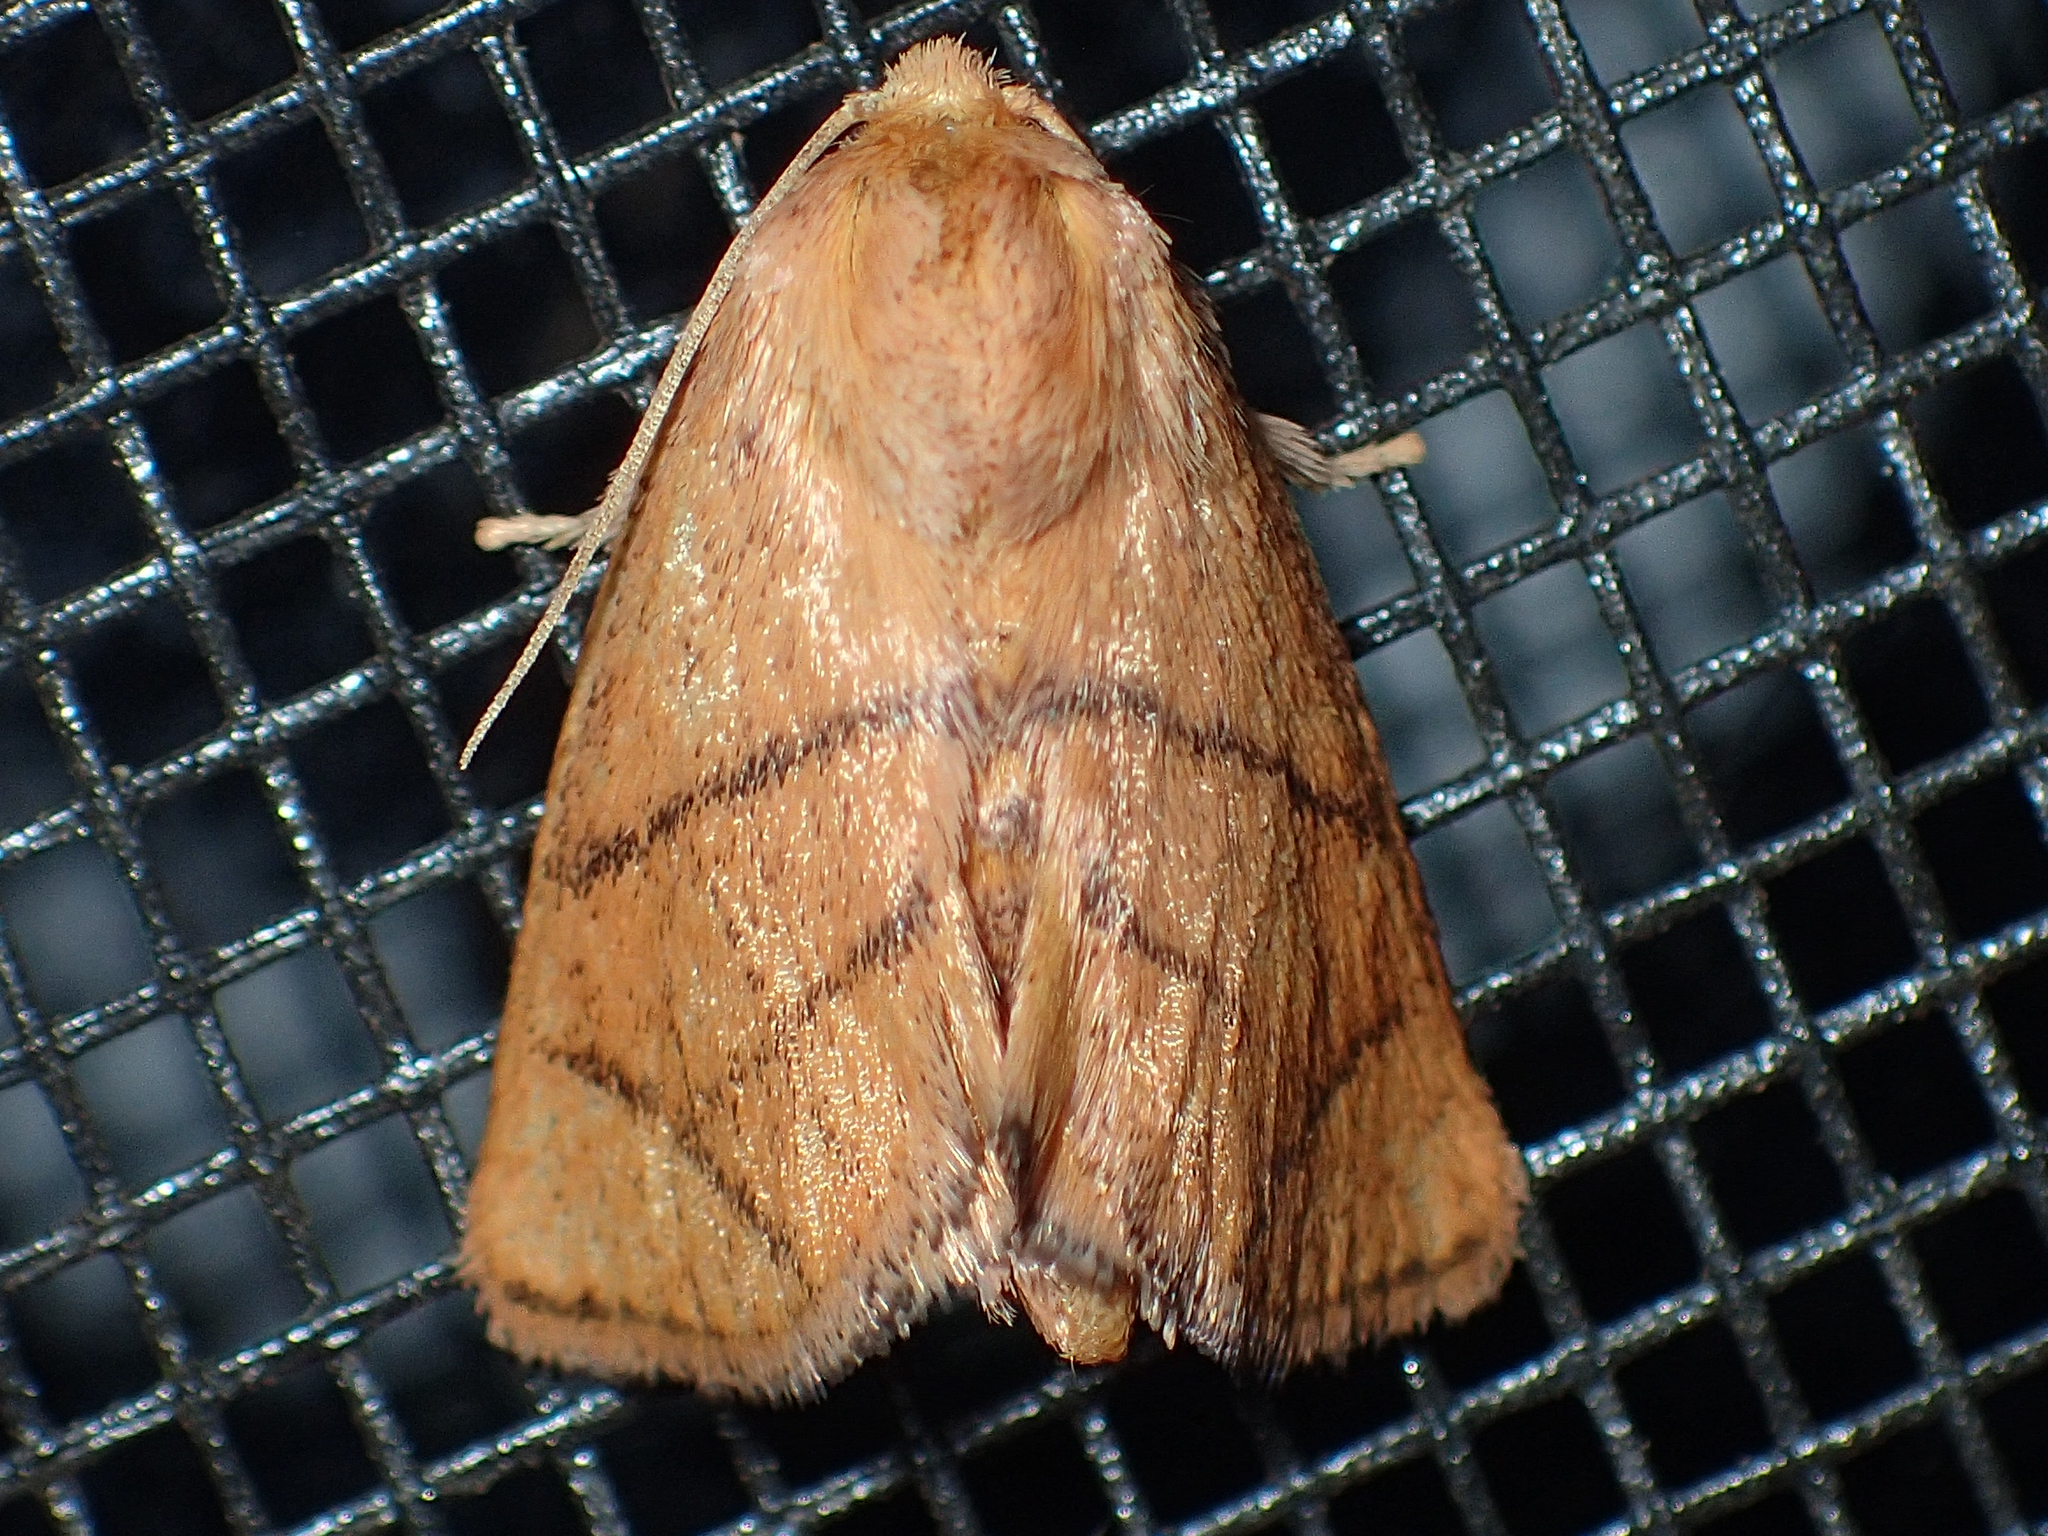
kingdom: Animalia
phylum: Arthropoda
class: Insecta
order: Lepidoptera
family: Limacodidae
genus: Apoda
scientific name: Apoda y-inversa
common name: Yellow-collared slug moth
